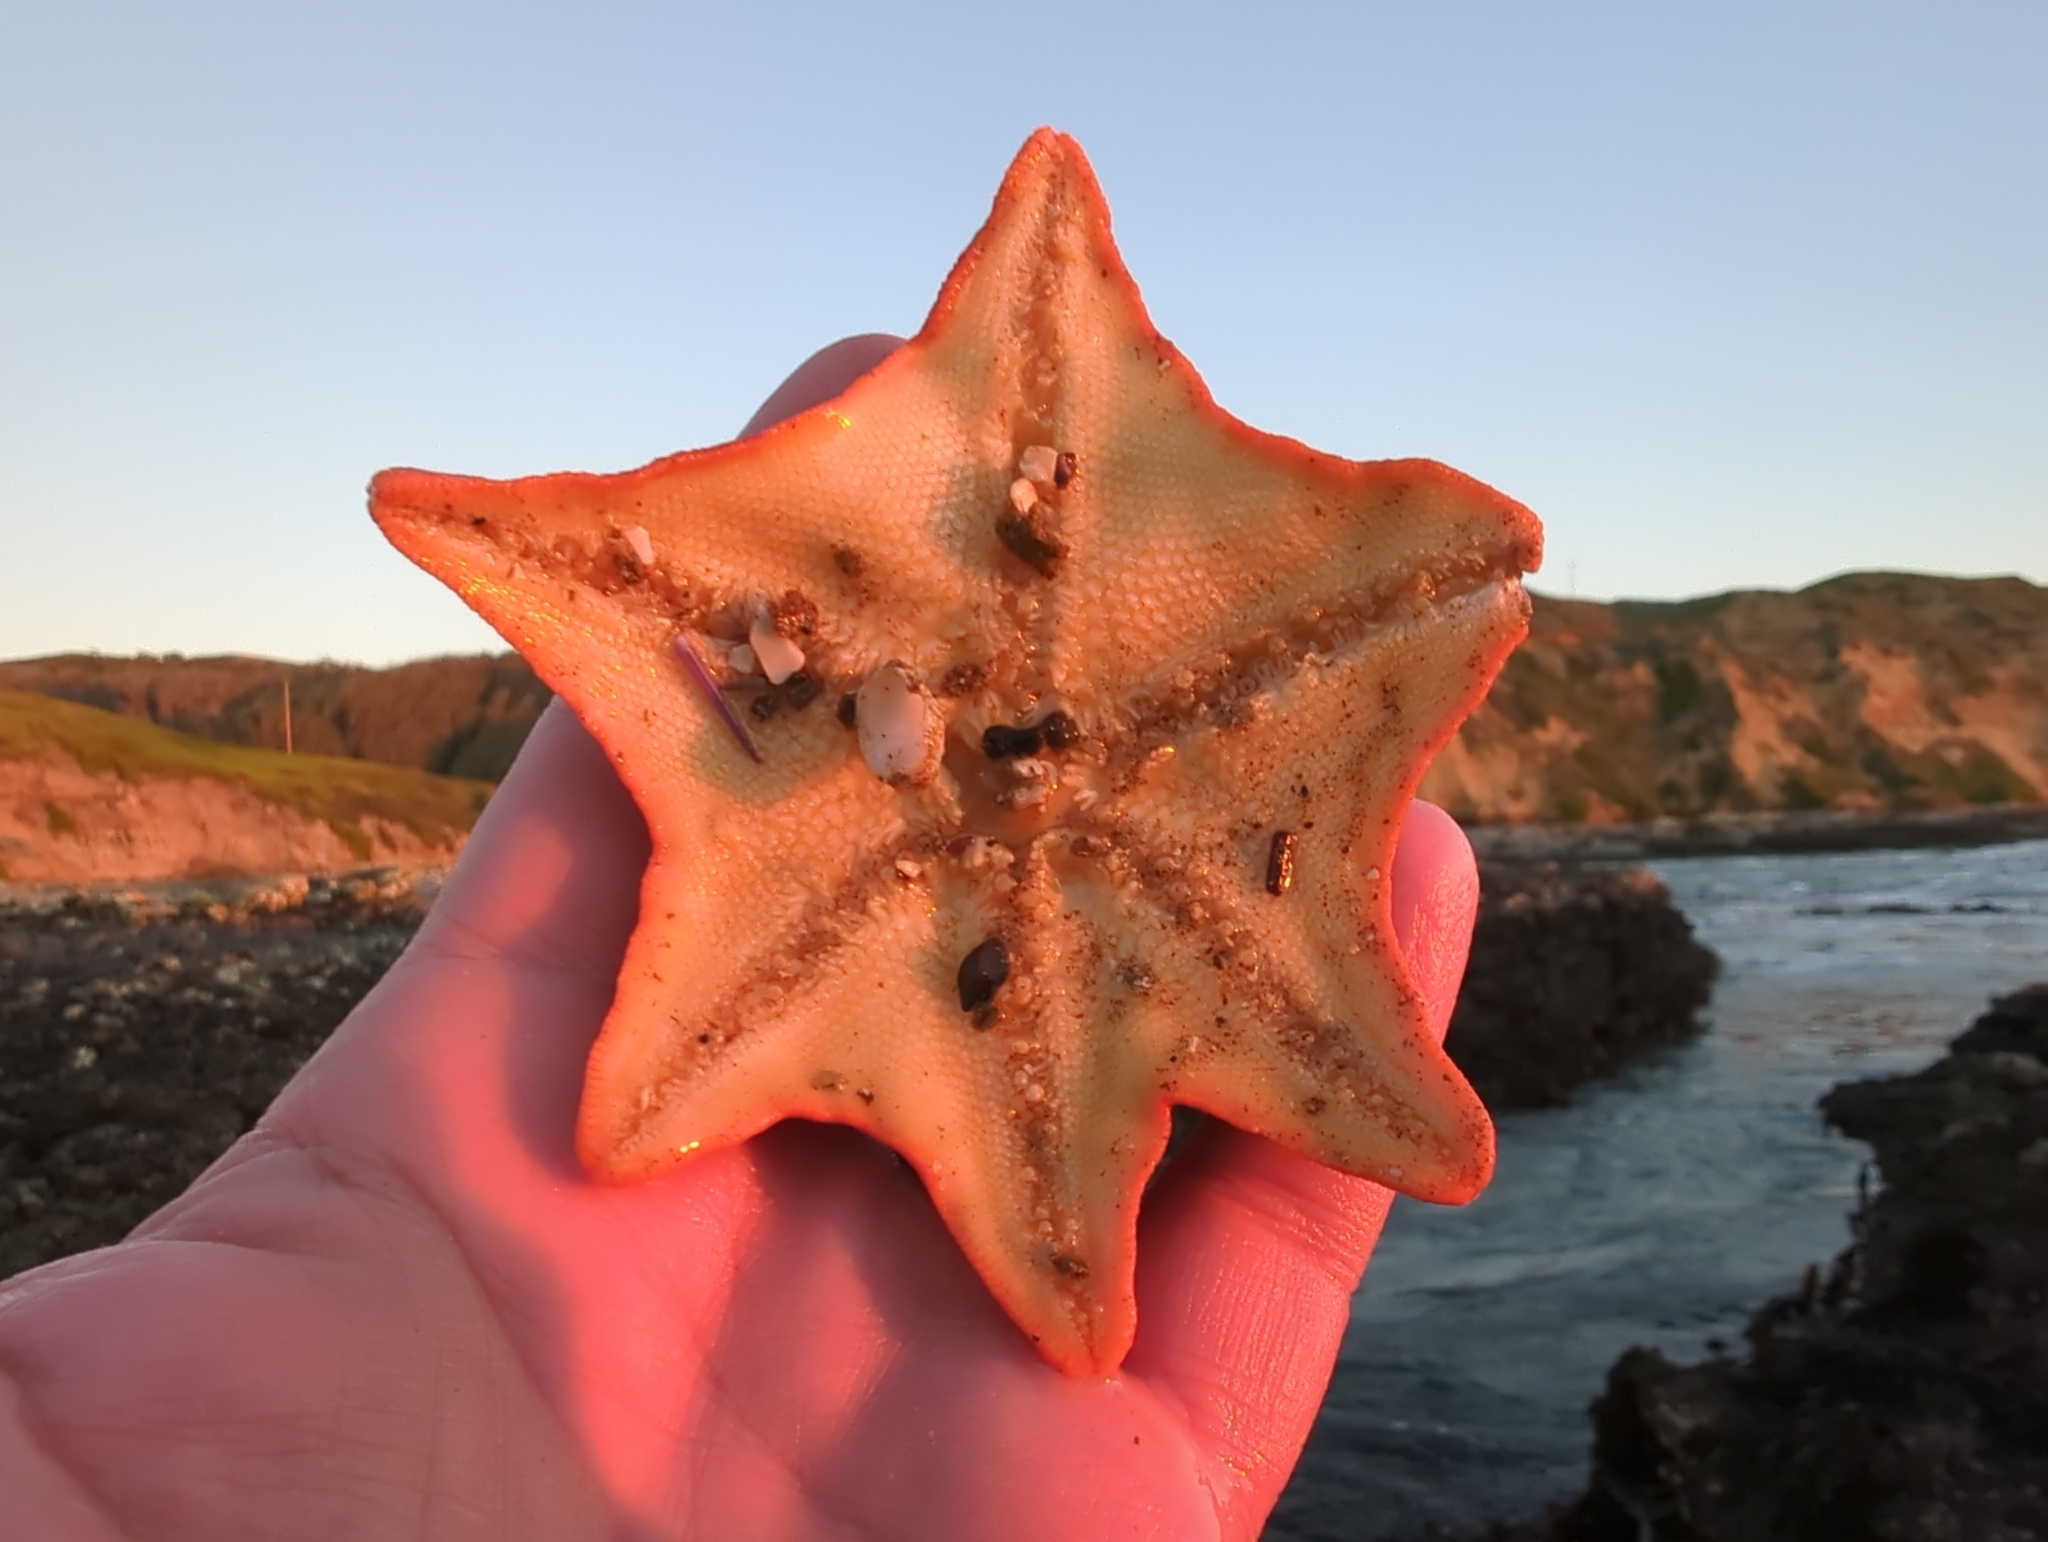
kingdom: Animalia
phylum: Echinodermata
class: Asteroidea
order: Valvatida
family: Asterinidae
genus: Patiria
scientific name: Patiria miniata
